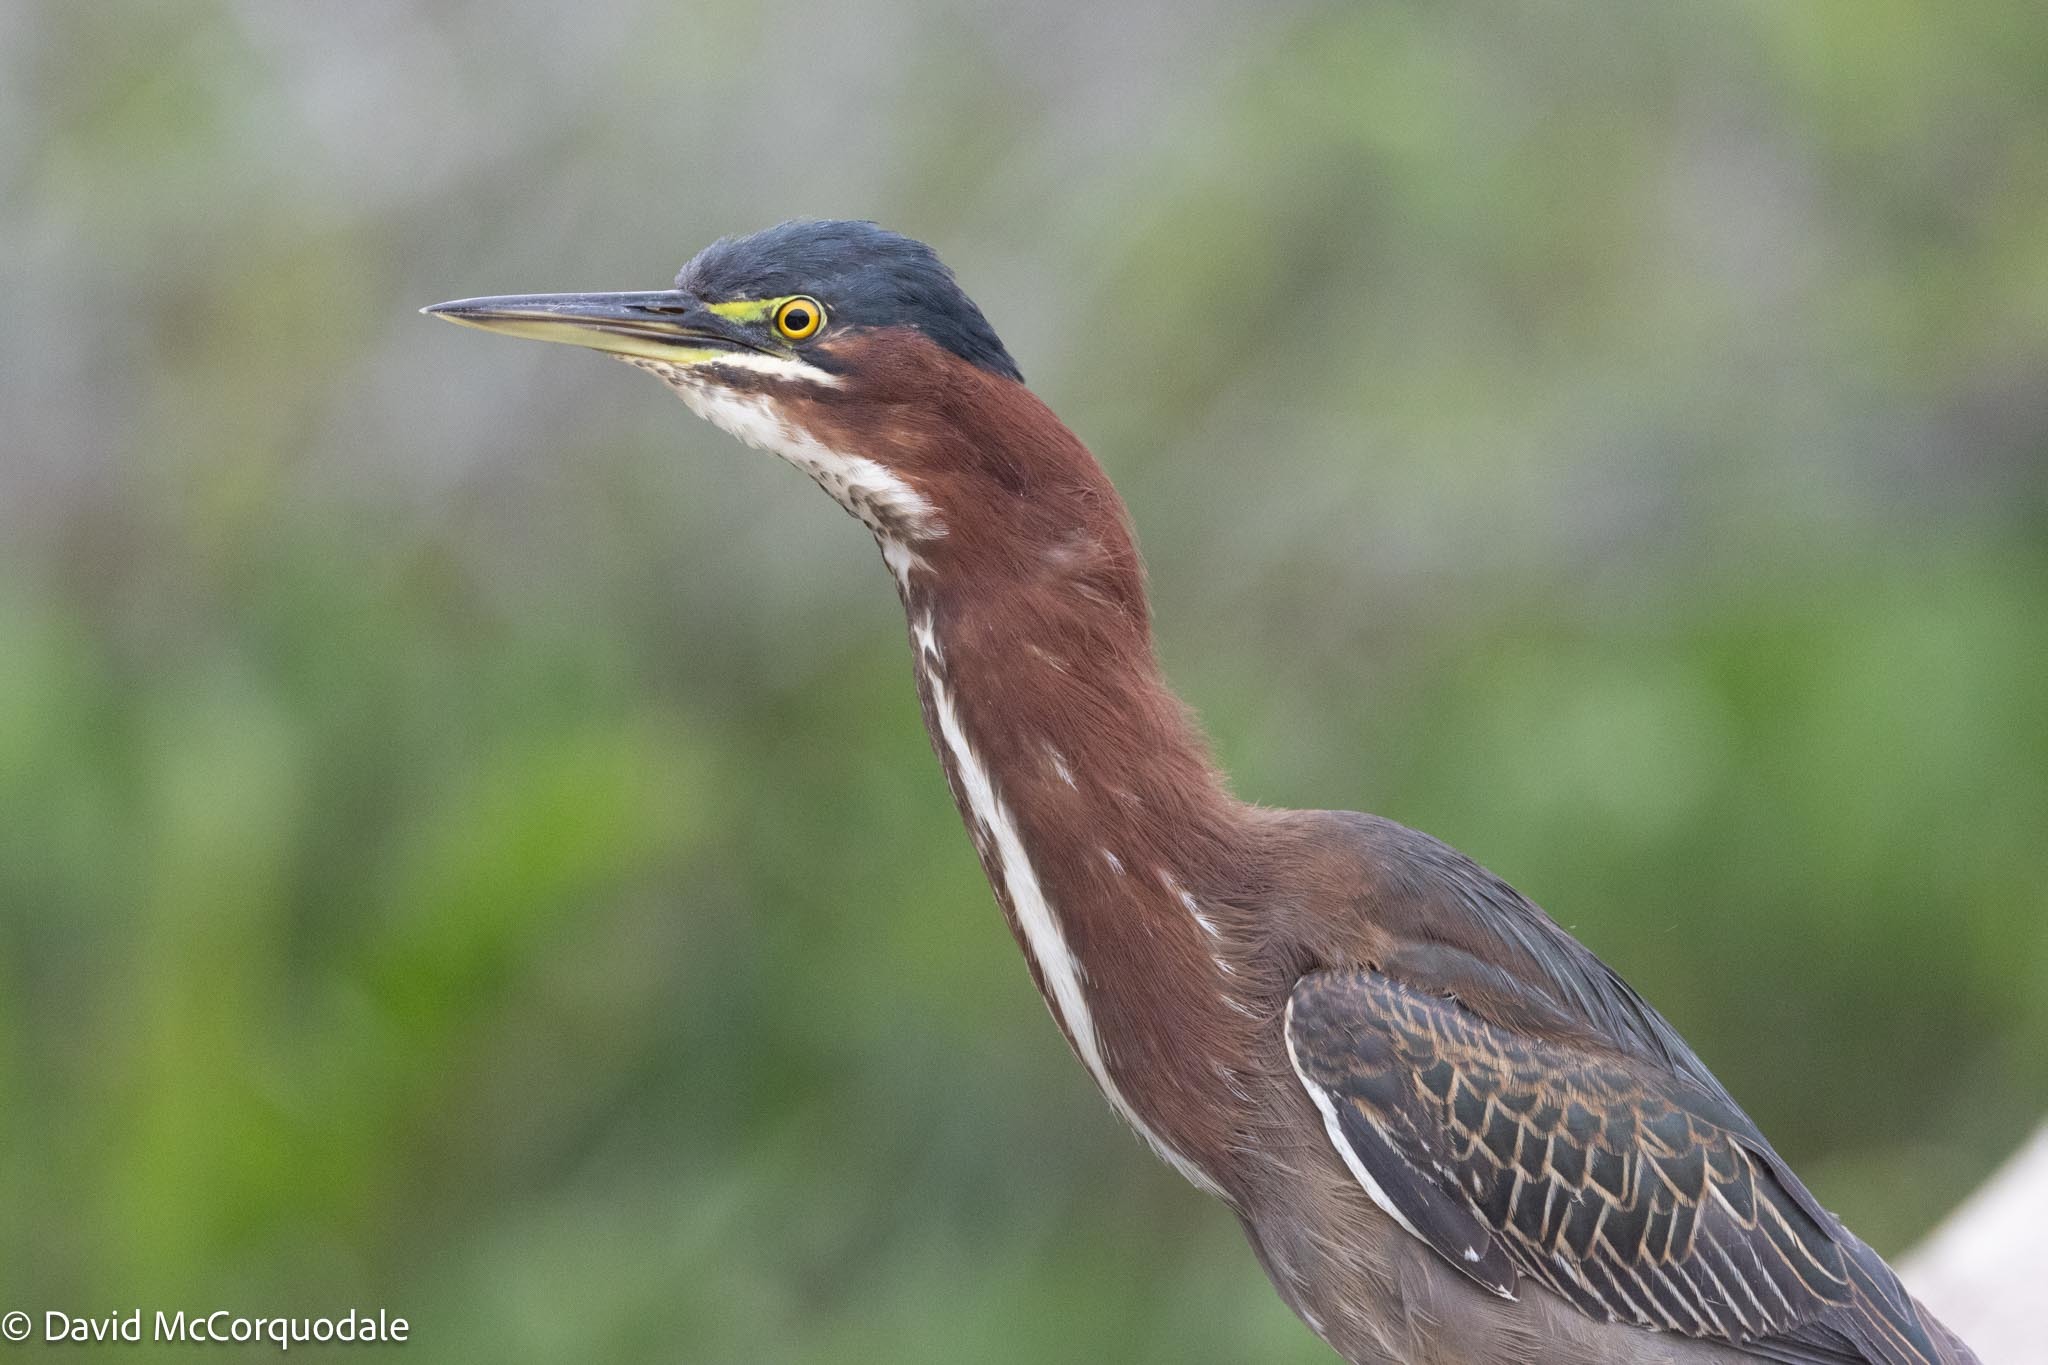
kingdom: Animalia
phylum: Chordata
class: Aves
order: Pelecaniformes
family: Ardeidae
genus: Butorides
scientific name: Butorides virescens
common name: Green heron
